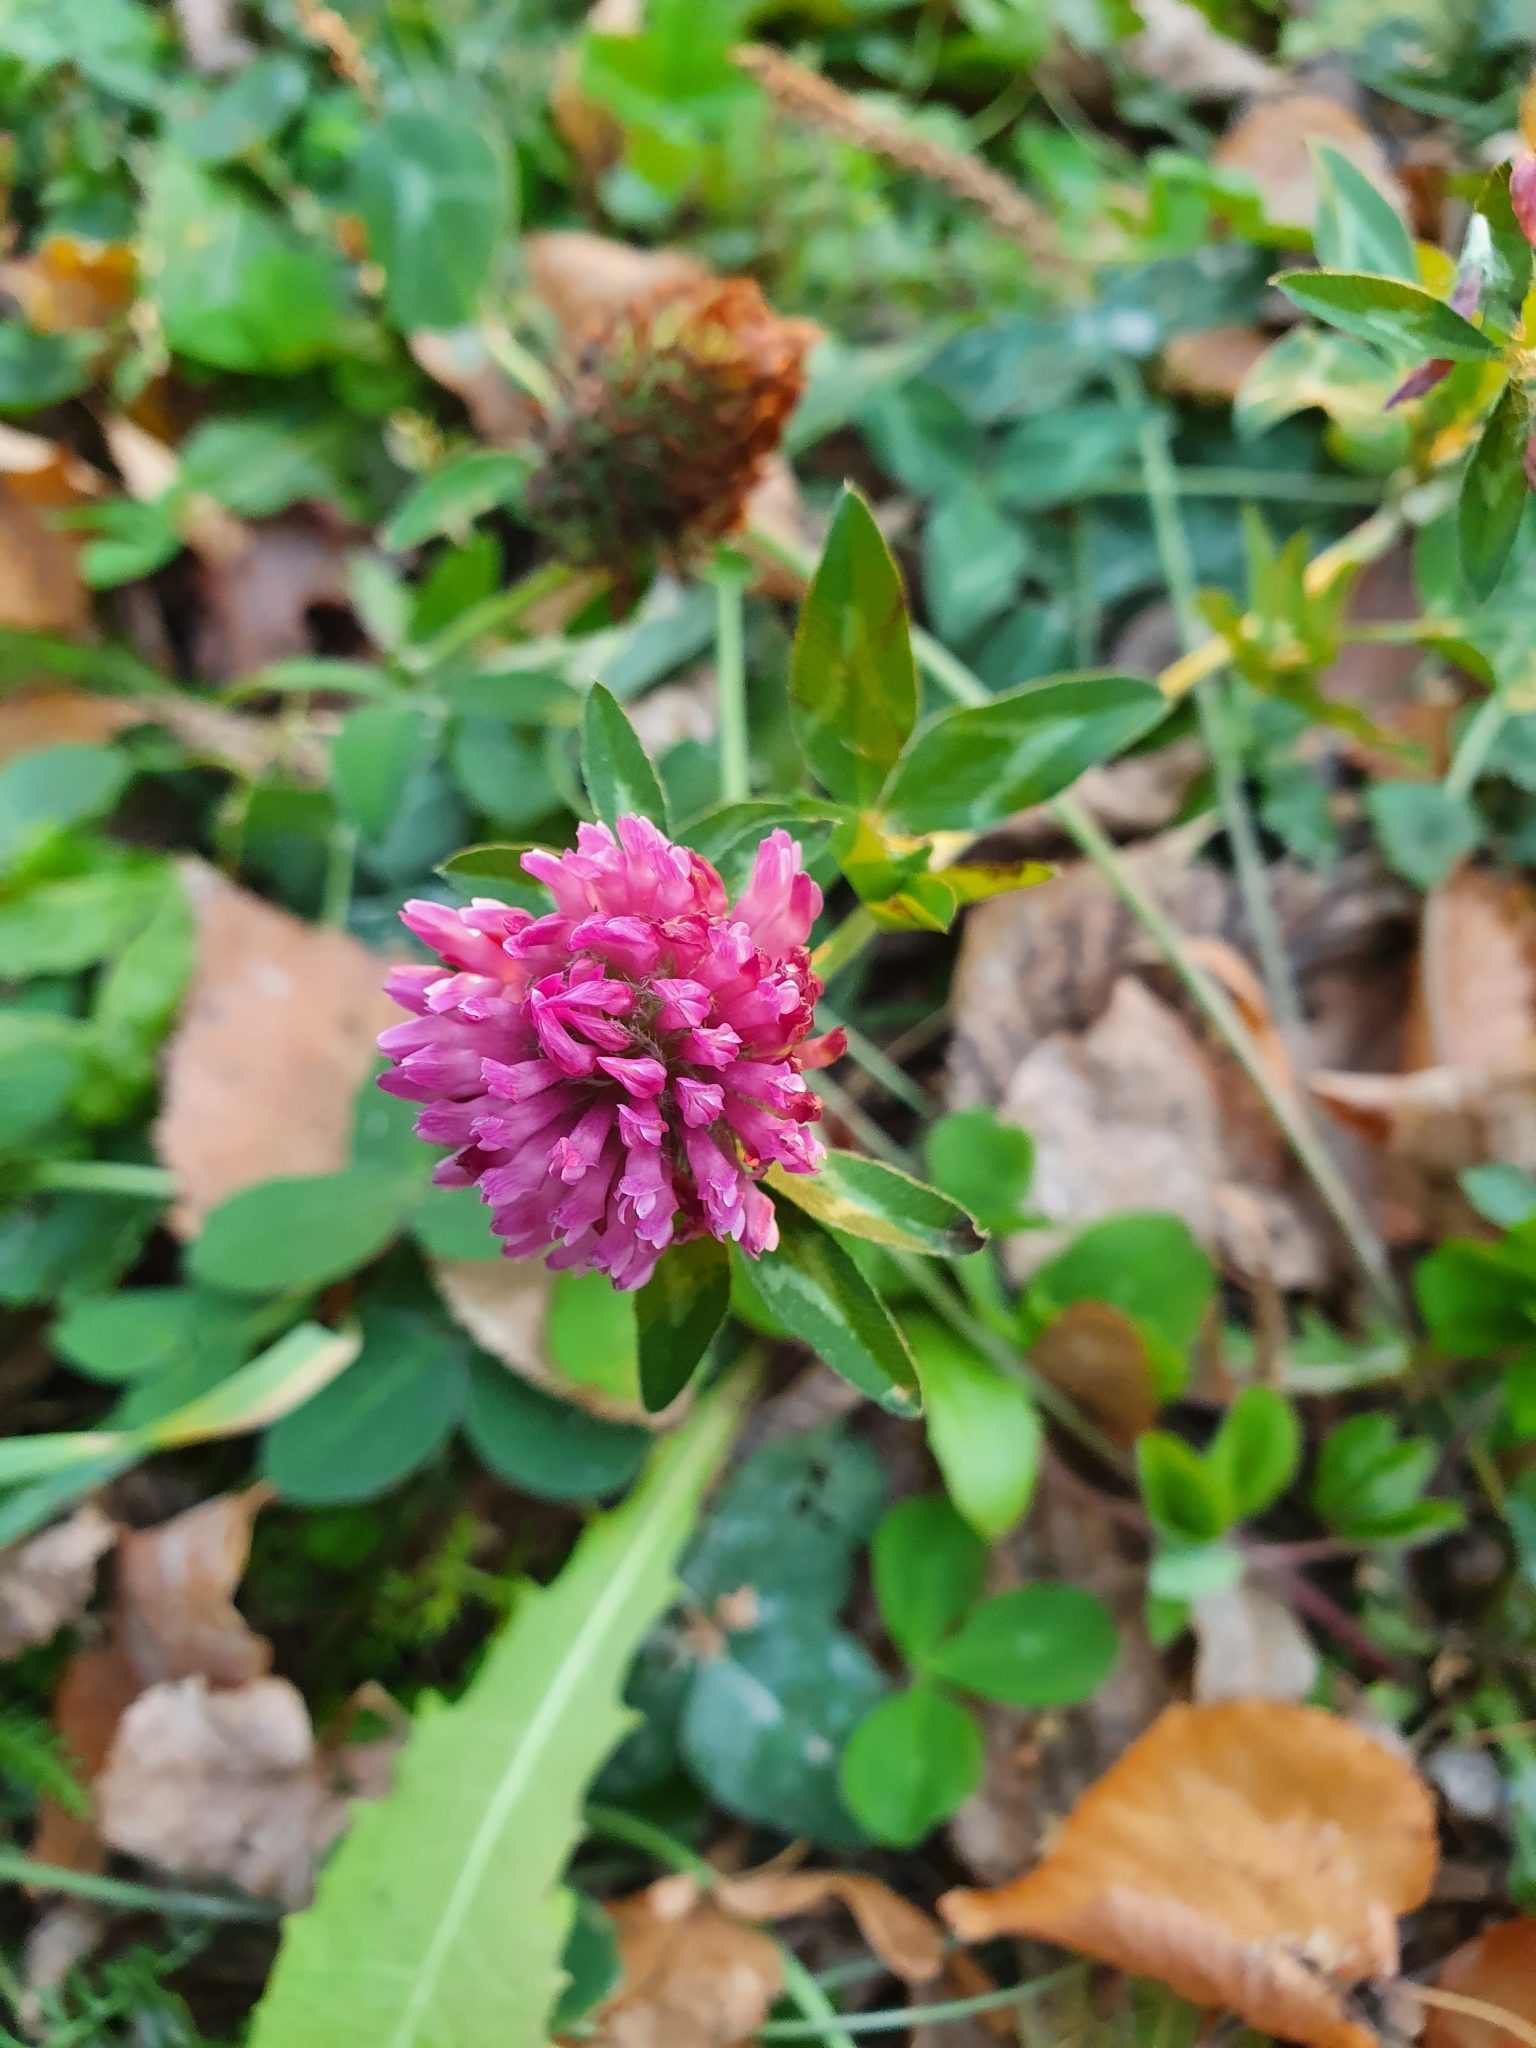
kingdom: Plantae
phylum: Tracheophyta
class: Magnoliopsida
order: Fabales
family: Fabaceae
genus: Trifolium
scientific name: Trifolium pratense
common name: Red clover
